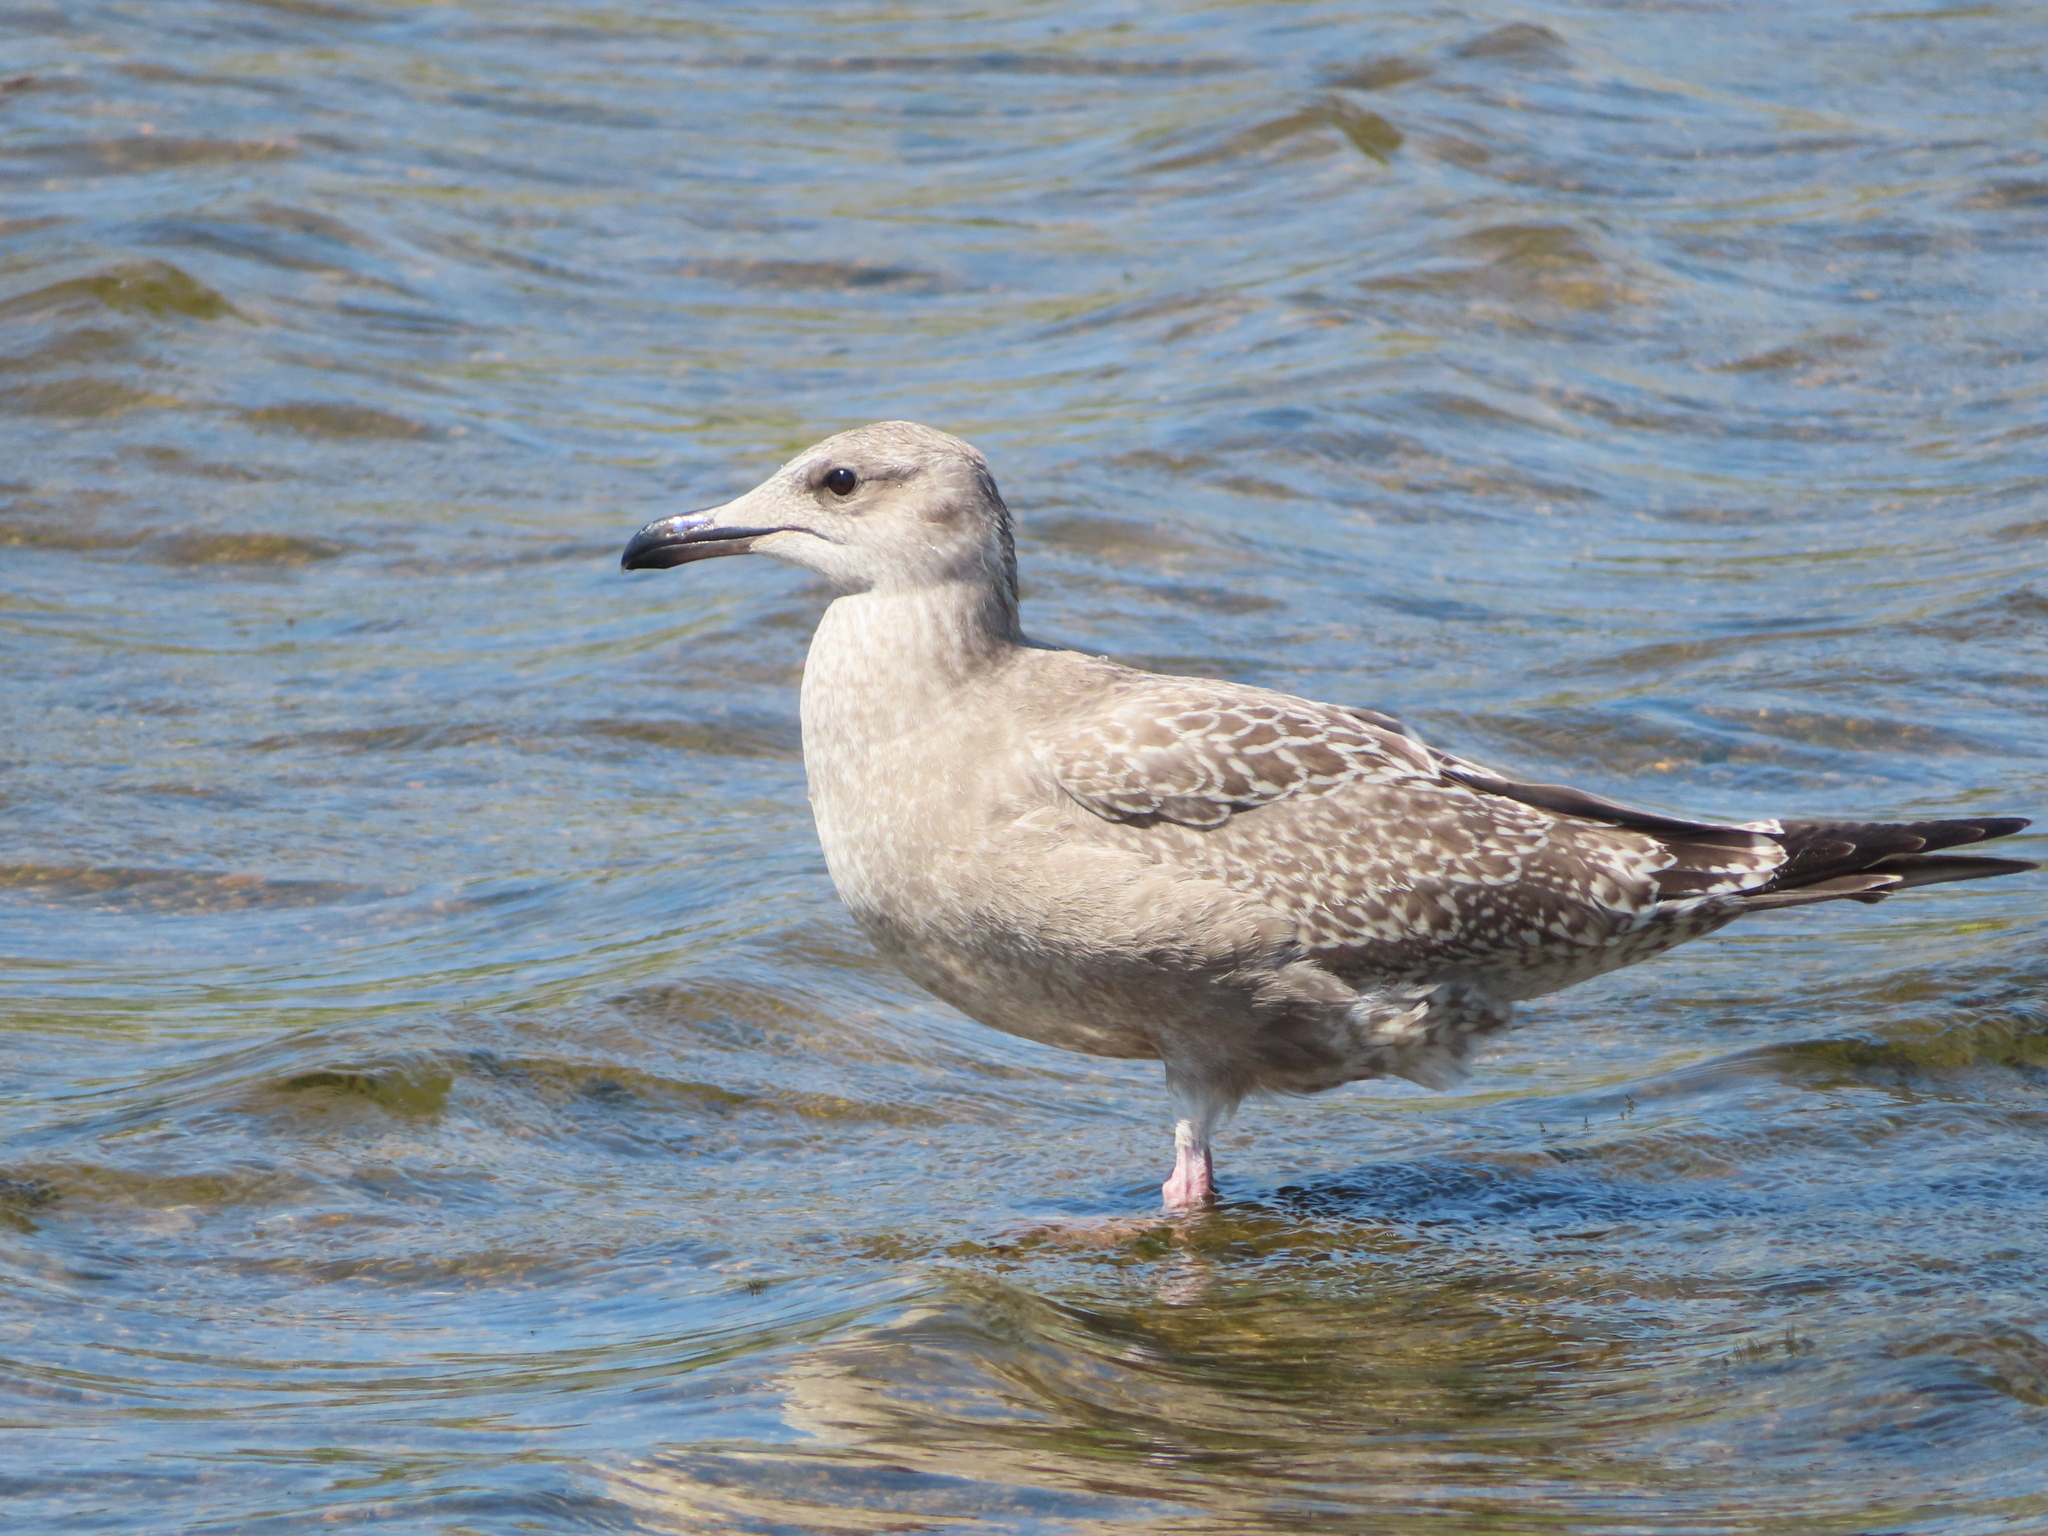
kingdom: Animalia
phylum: Chordata
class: Aves
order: Charadriiformes
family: Laridae
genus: Larus
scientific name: Larus argentatus
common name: Herring gull
